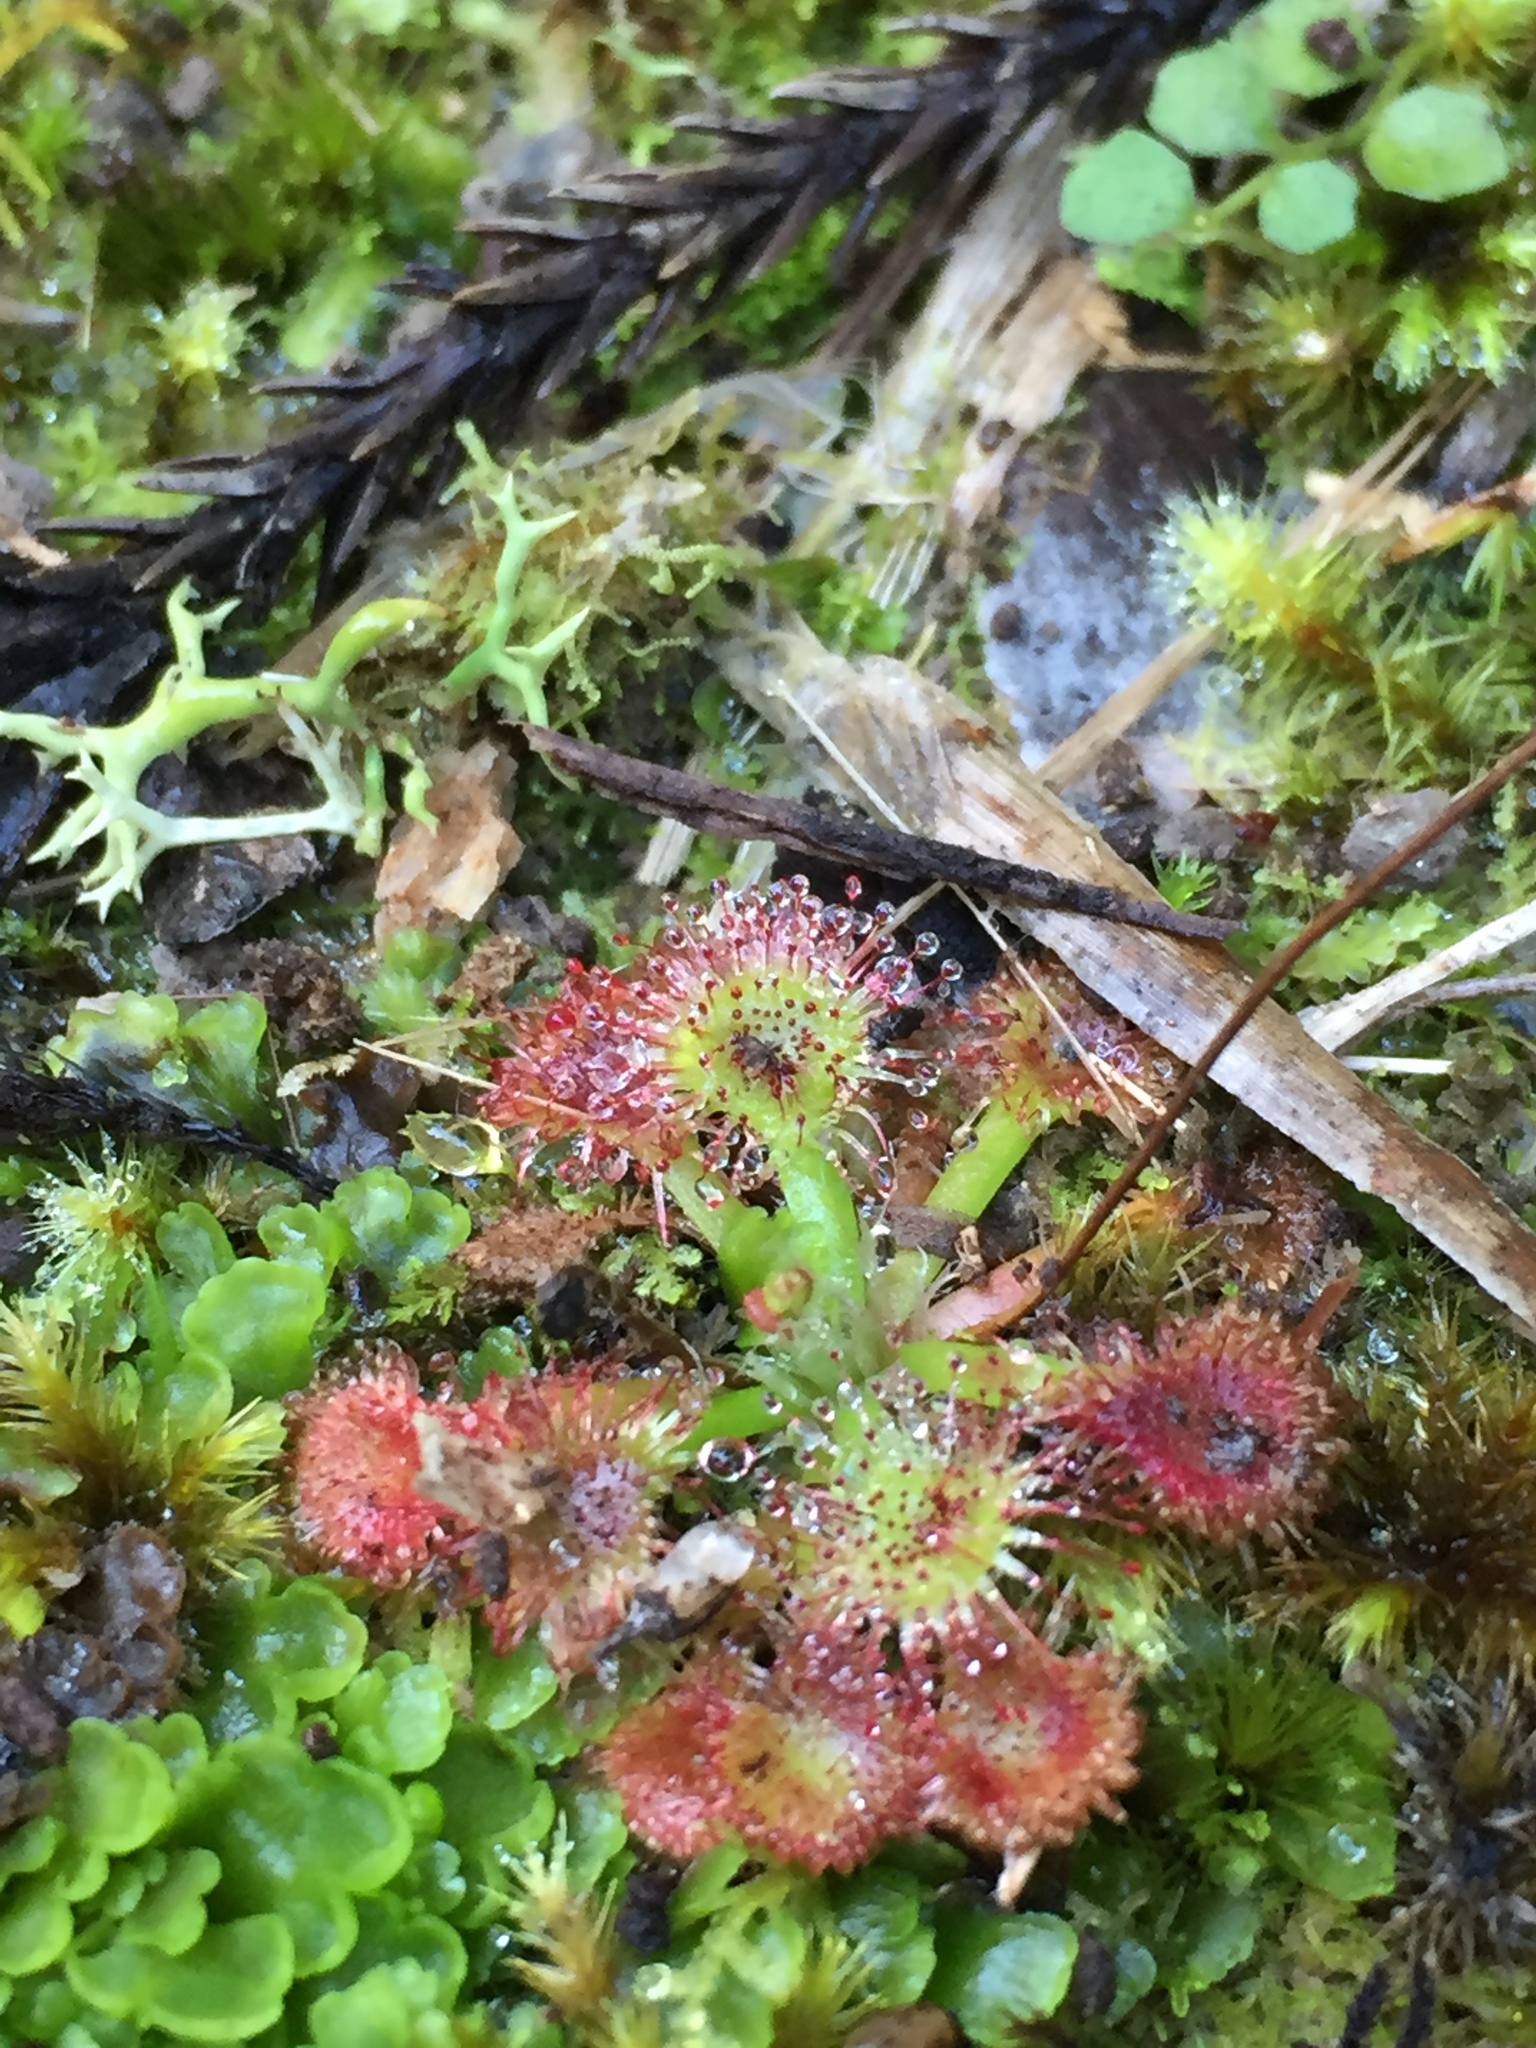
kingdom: Plantae
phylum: Tracheophyta
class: Magnoliopsida
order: Caryophyllales
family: Droseraceae
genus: Drosera
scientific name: Drosera spatulata
